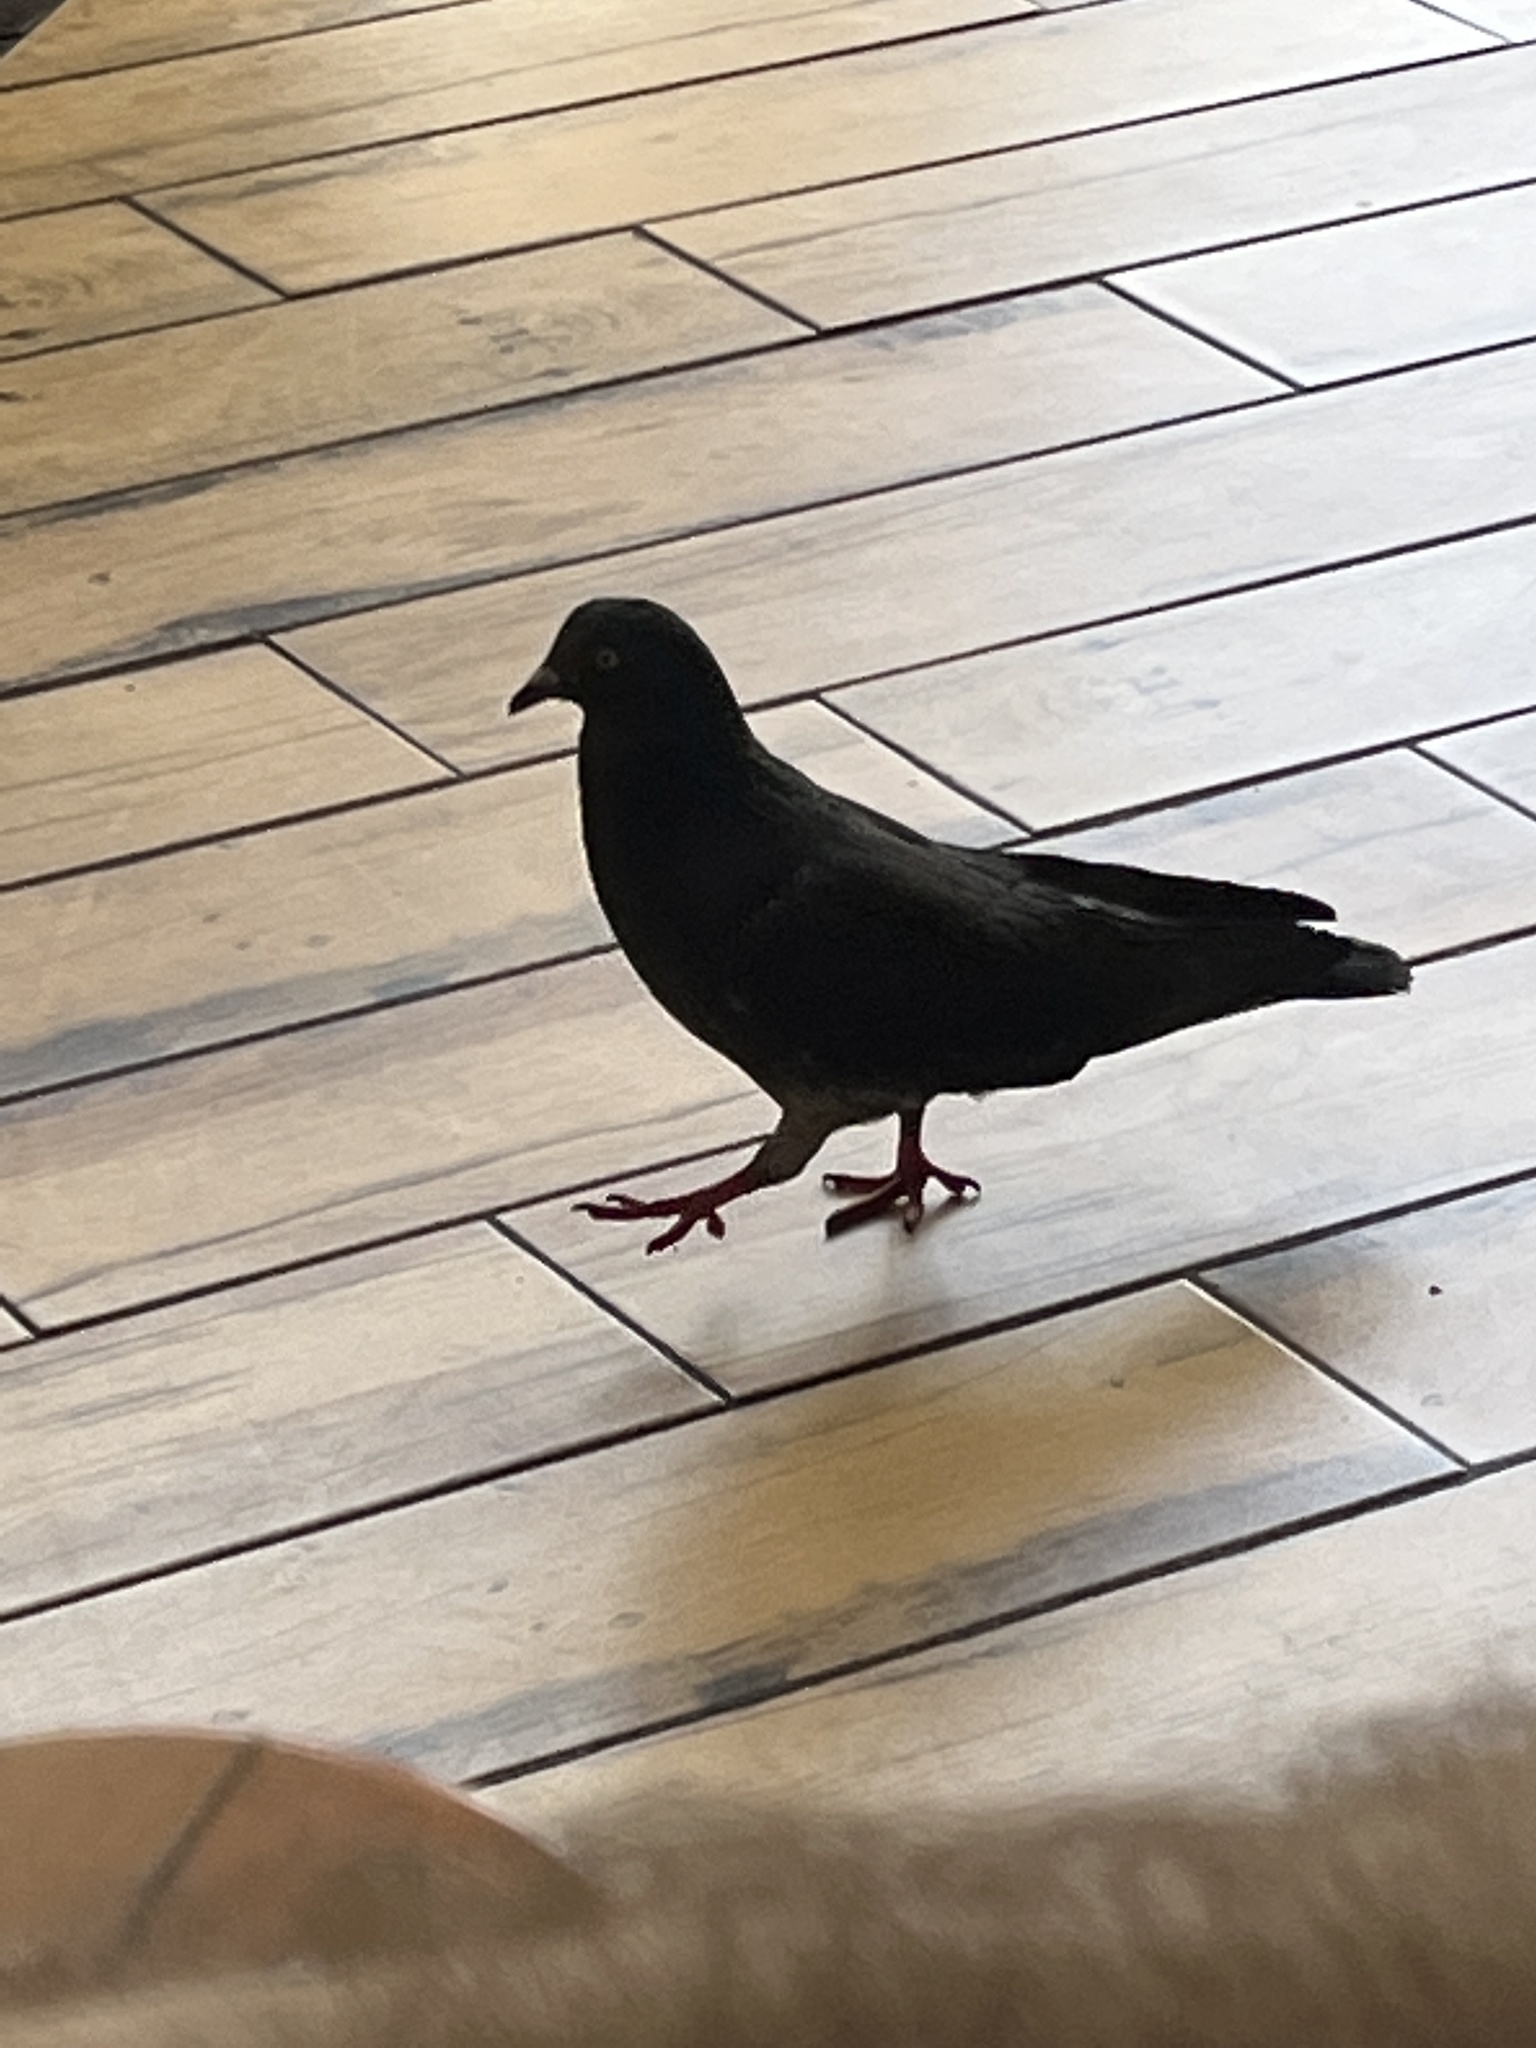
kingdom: Animalia
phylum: Chordata
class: Aves
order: Columbiformes
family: Columbidae
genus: Columba
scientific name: Columba livia
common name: Rock pigeon
